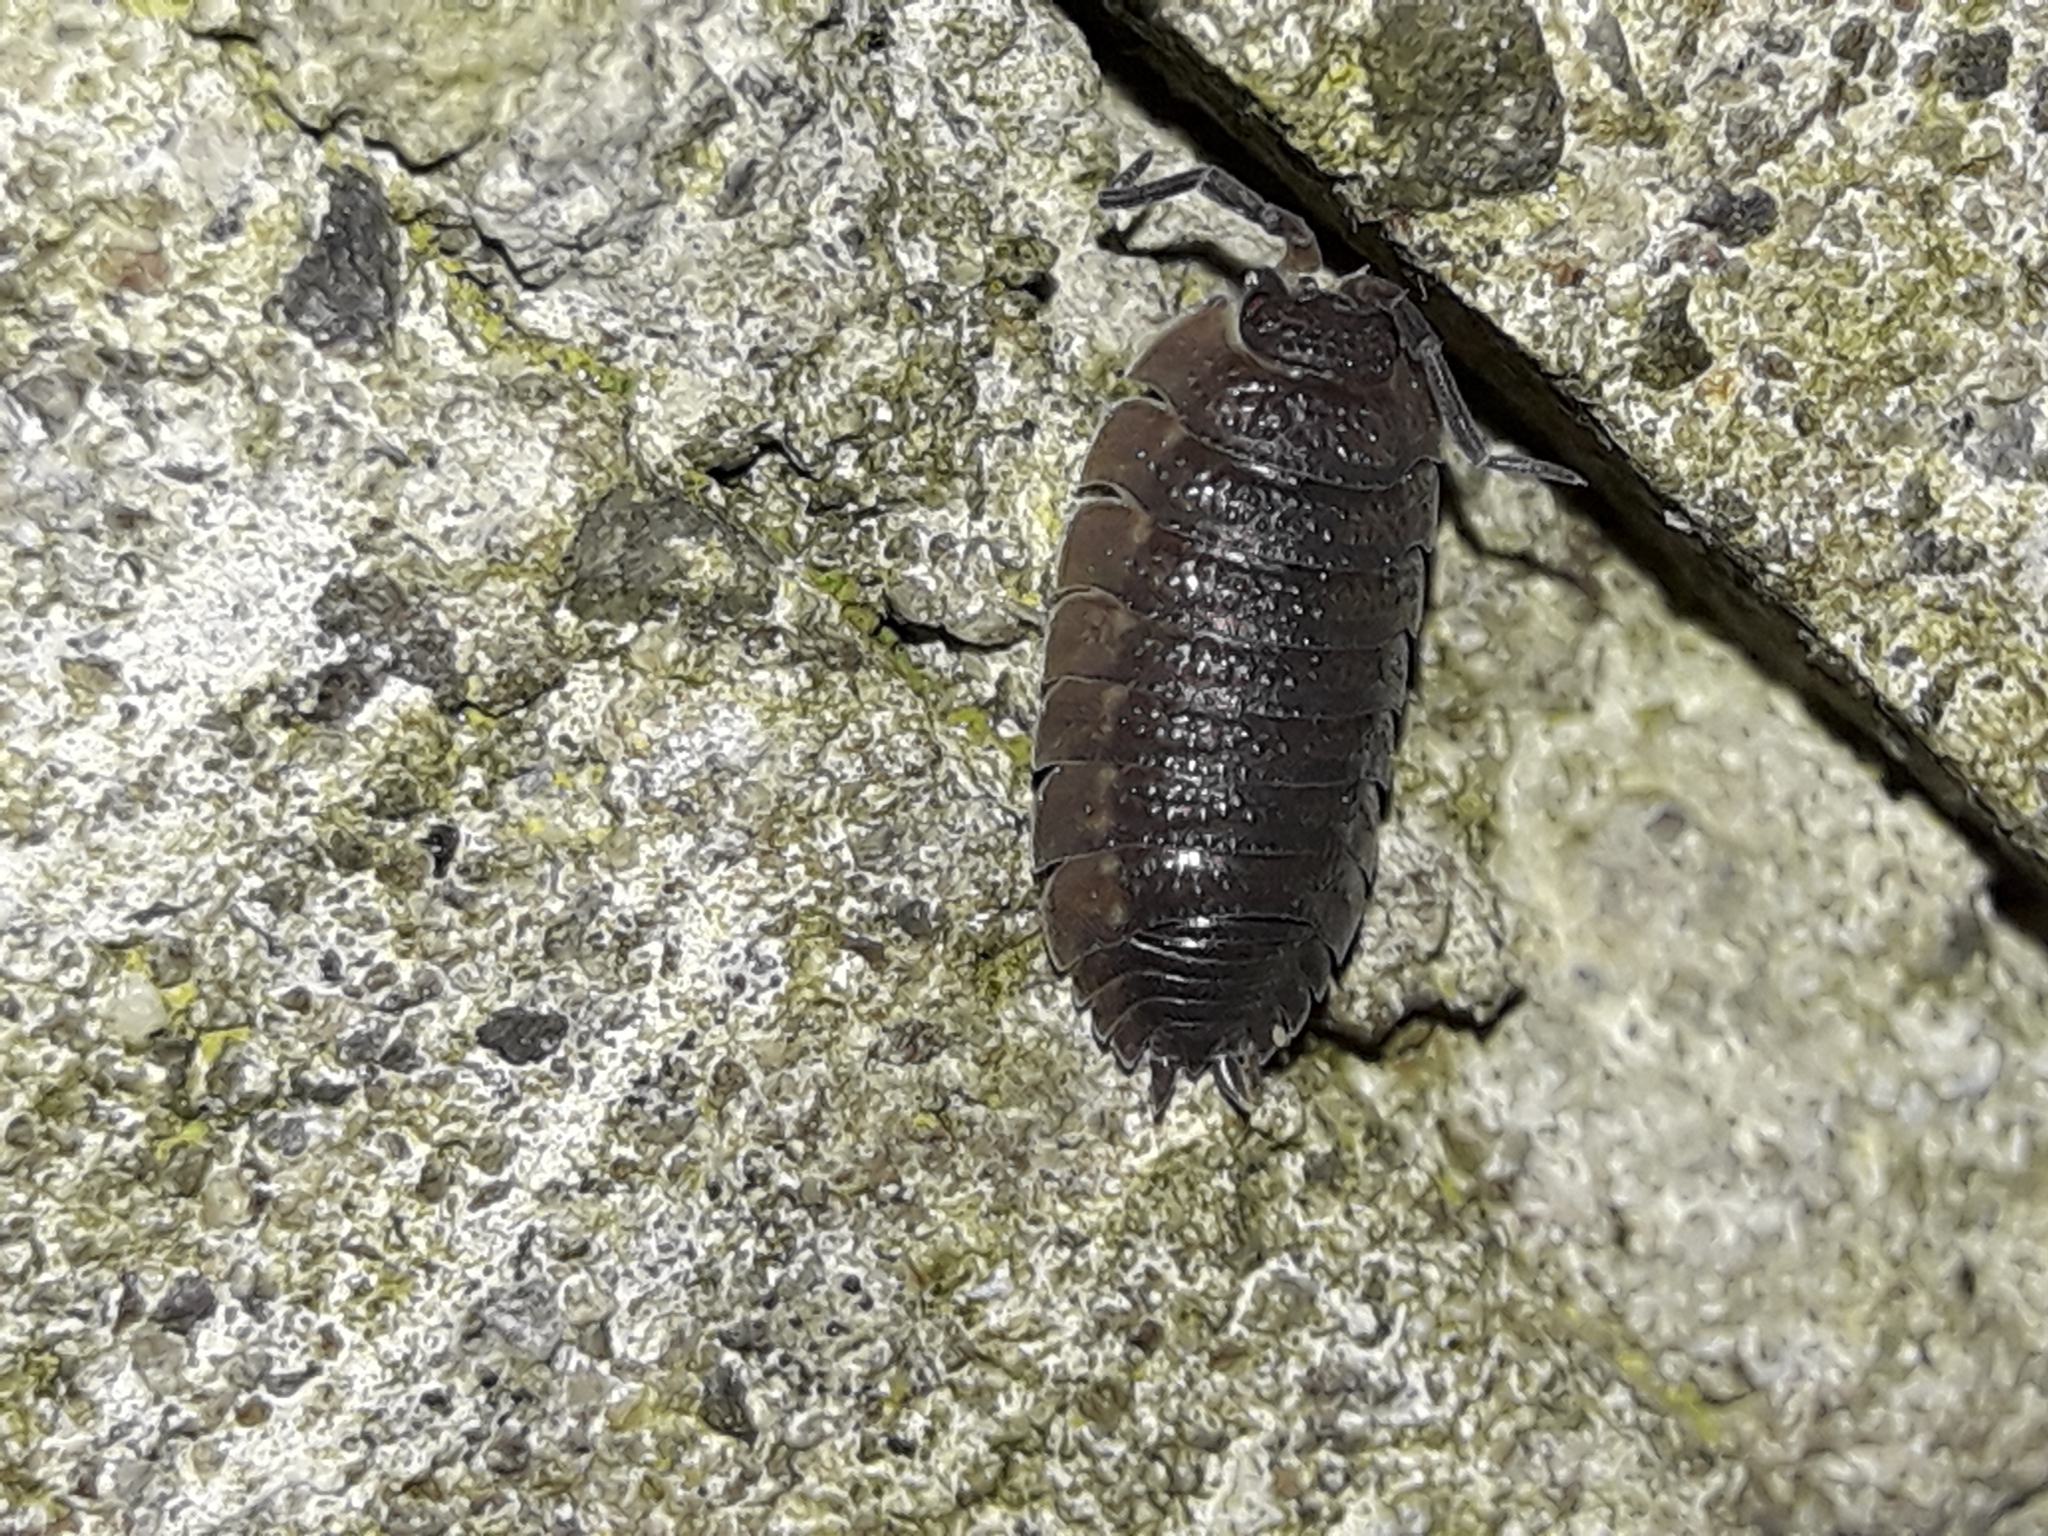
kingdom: Animalia
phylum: Arthropoda
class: Malacostraca
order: Isopoda
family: Porcellionidae
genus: Porcellio
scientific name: Porcellio scaber
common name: Common rough woodlouse
